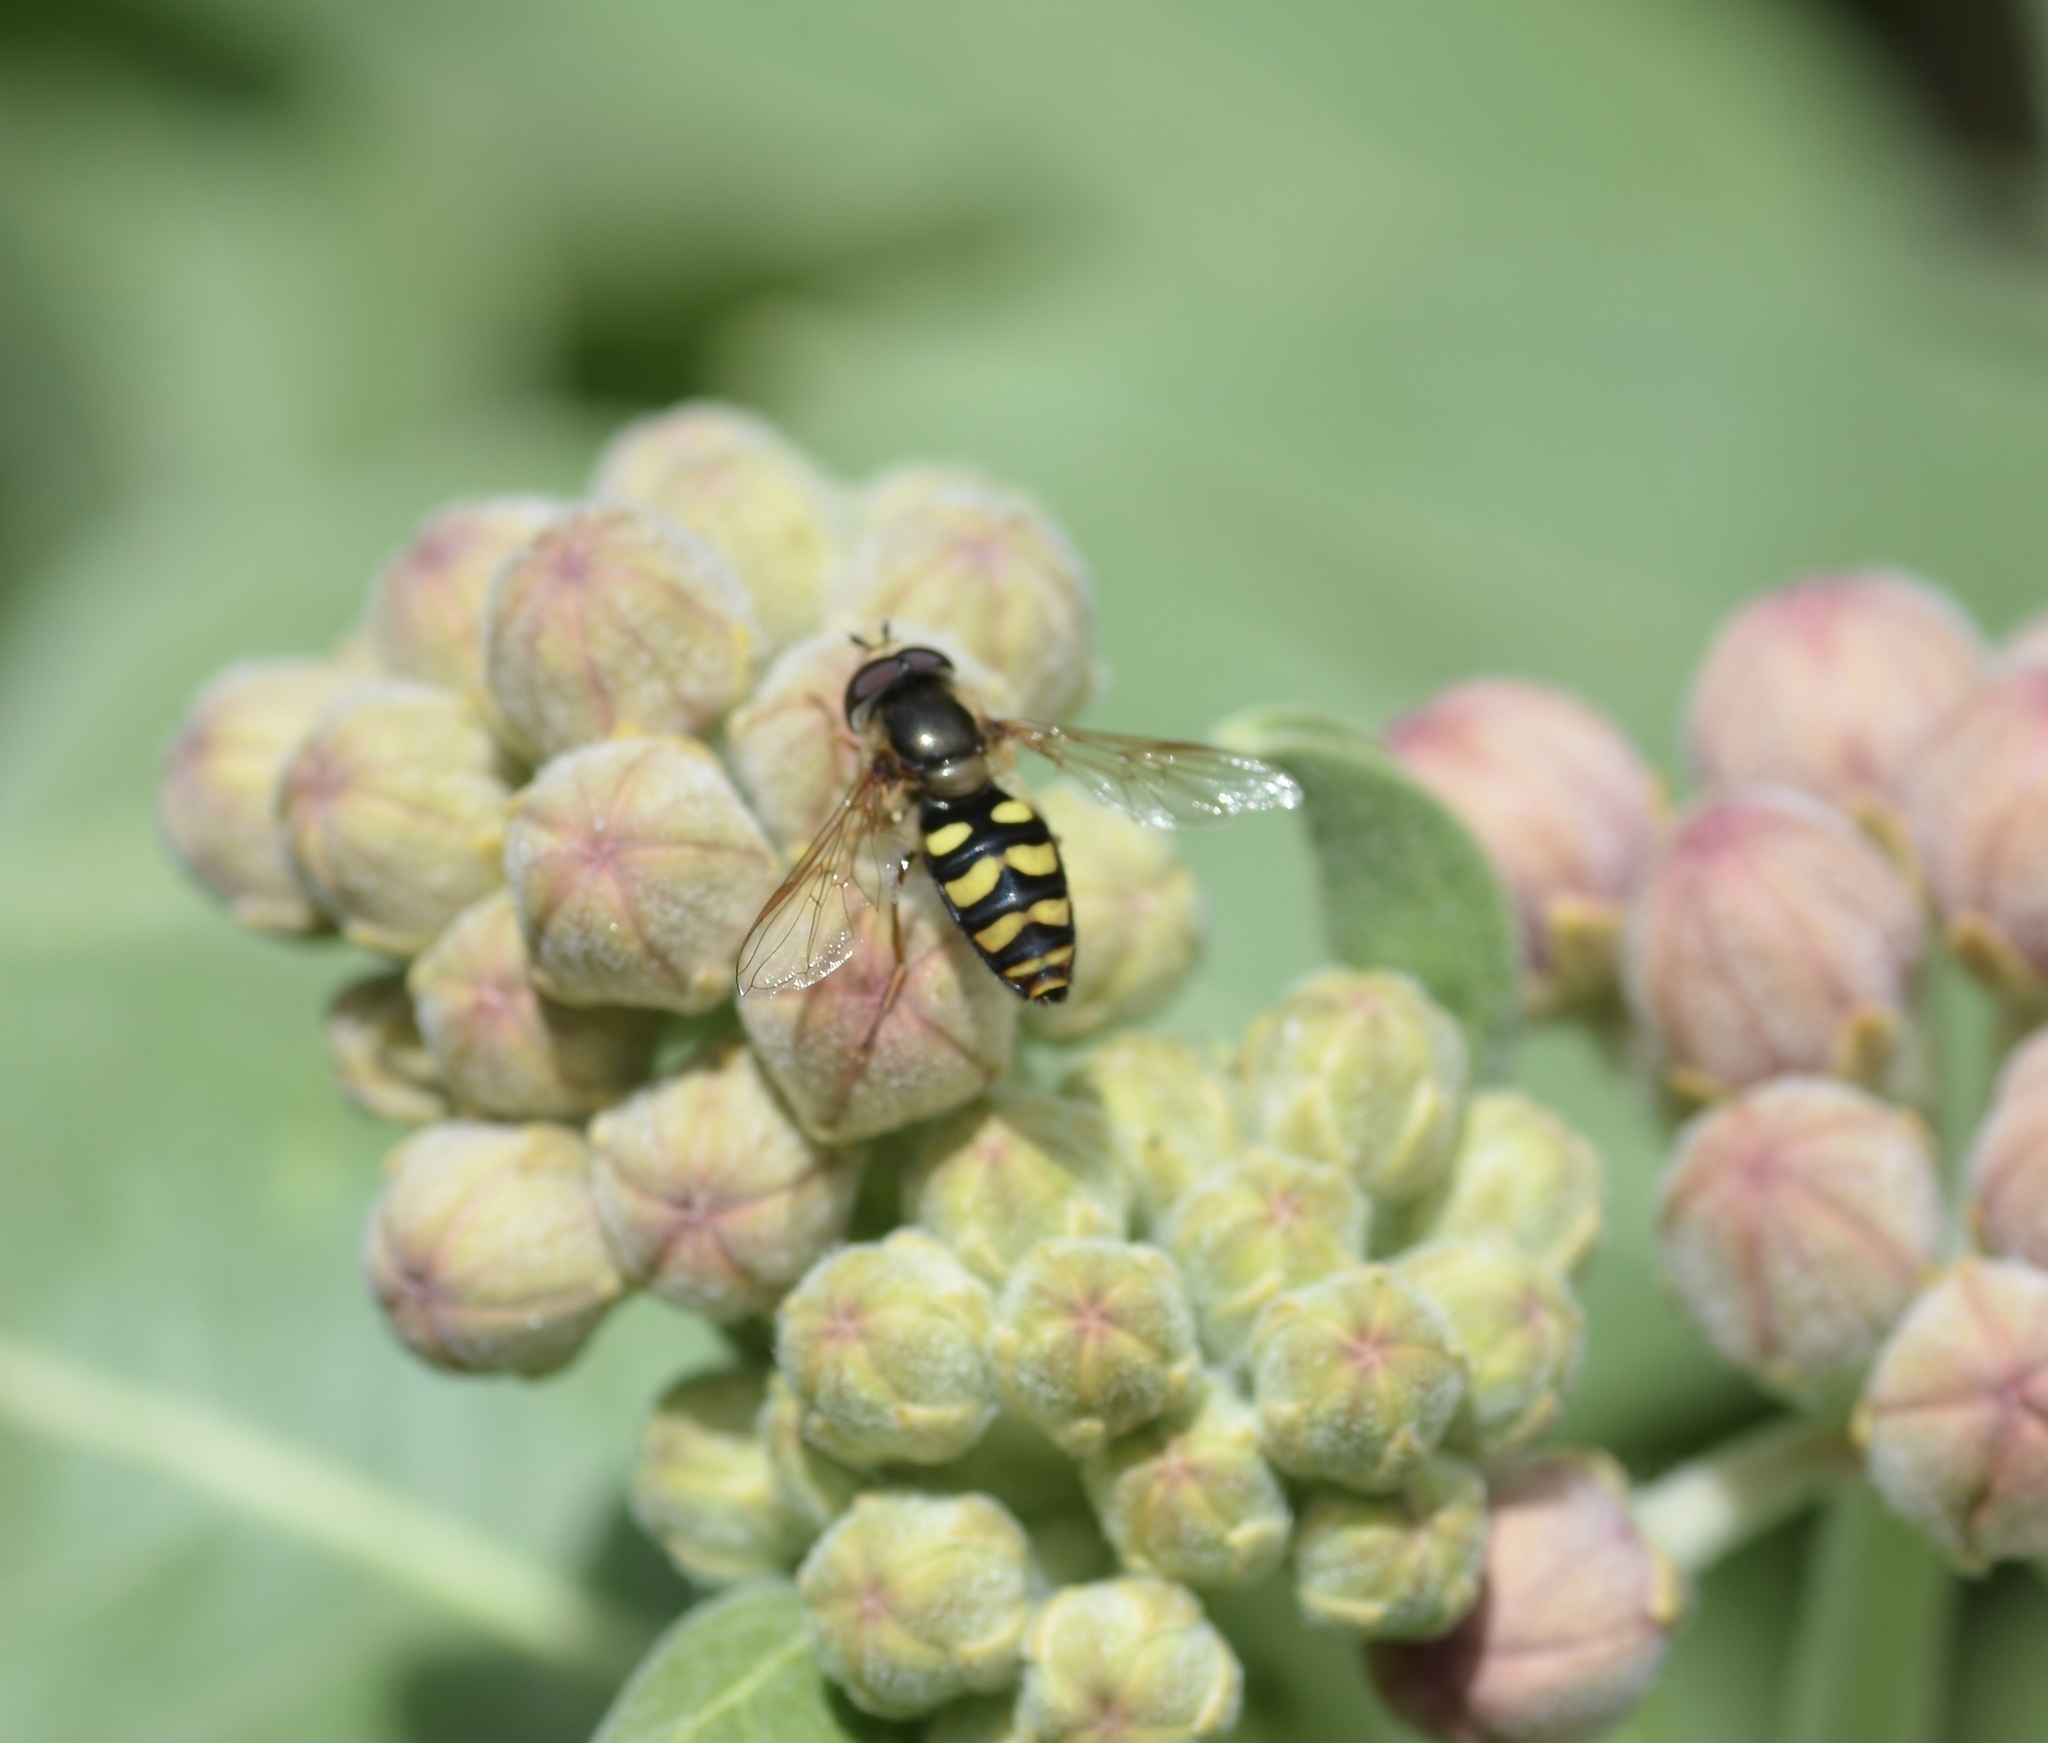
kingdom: Animalia
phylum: Arthropoda
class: Insecta
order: Diptera
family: Syrphidae
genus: Eupeodes
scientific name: Eupeodes fumipennis
